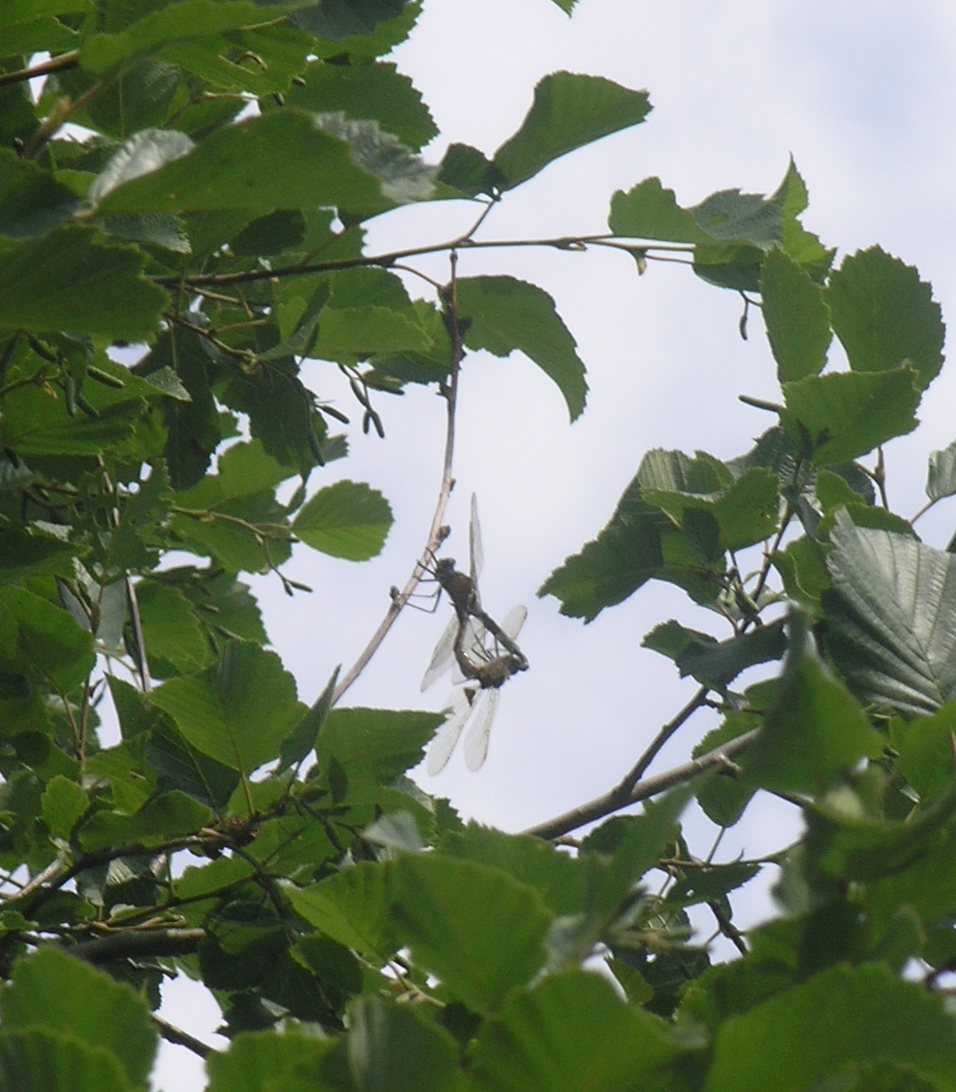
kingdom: Animalia
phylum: Arthropoda
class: Insecta
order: Odonata
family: Corduliidae
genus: Epitheca
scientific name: Epitheca bimaculata
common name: Eurasian baskettail
